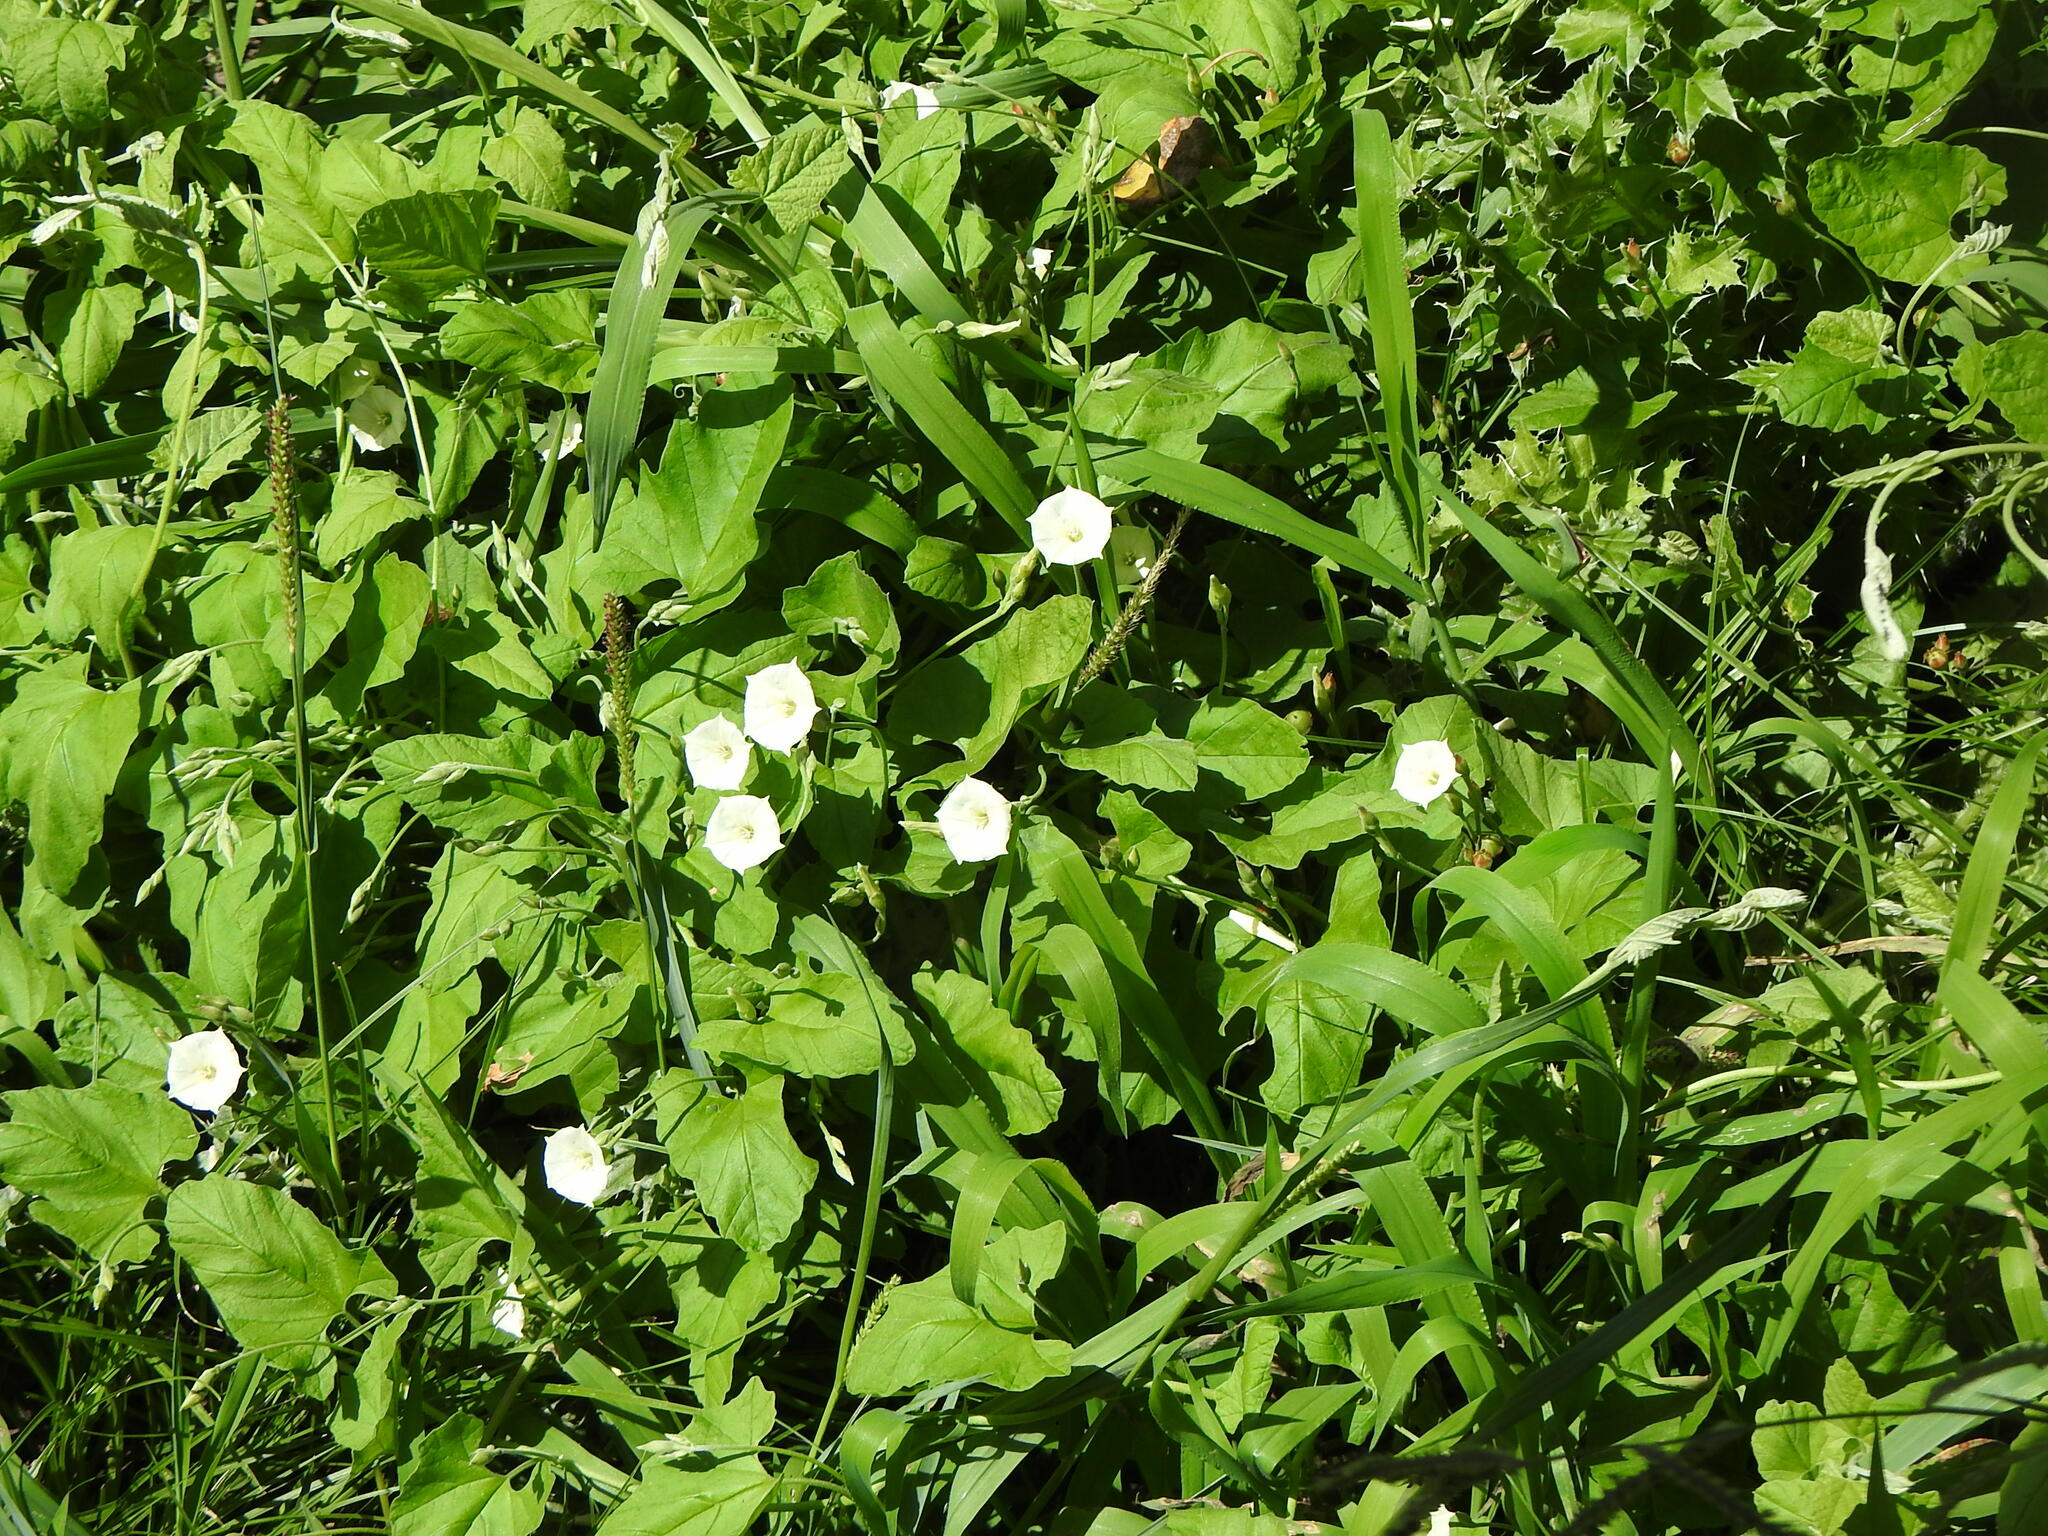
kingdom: Plantae
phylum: Tracheophyta
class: Magnoliopsida
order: Solanales
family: Convolvulaceae
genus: Convolvulus
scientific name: Convolvulus crenatifolius
